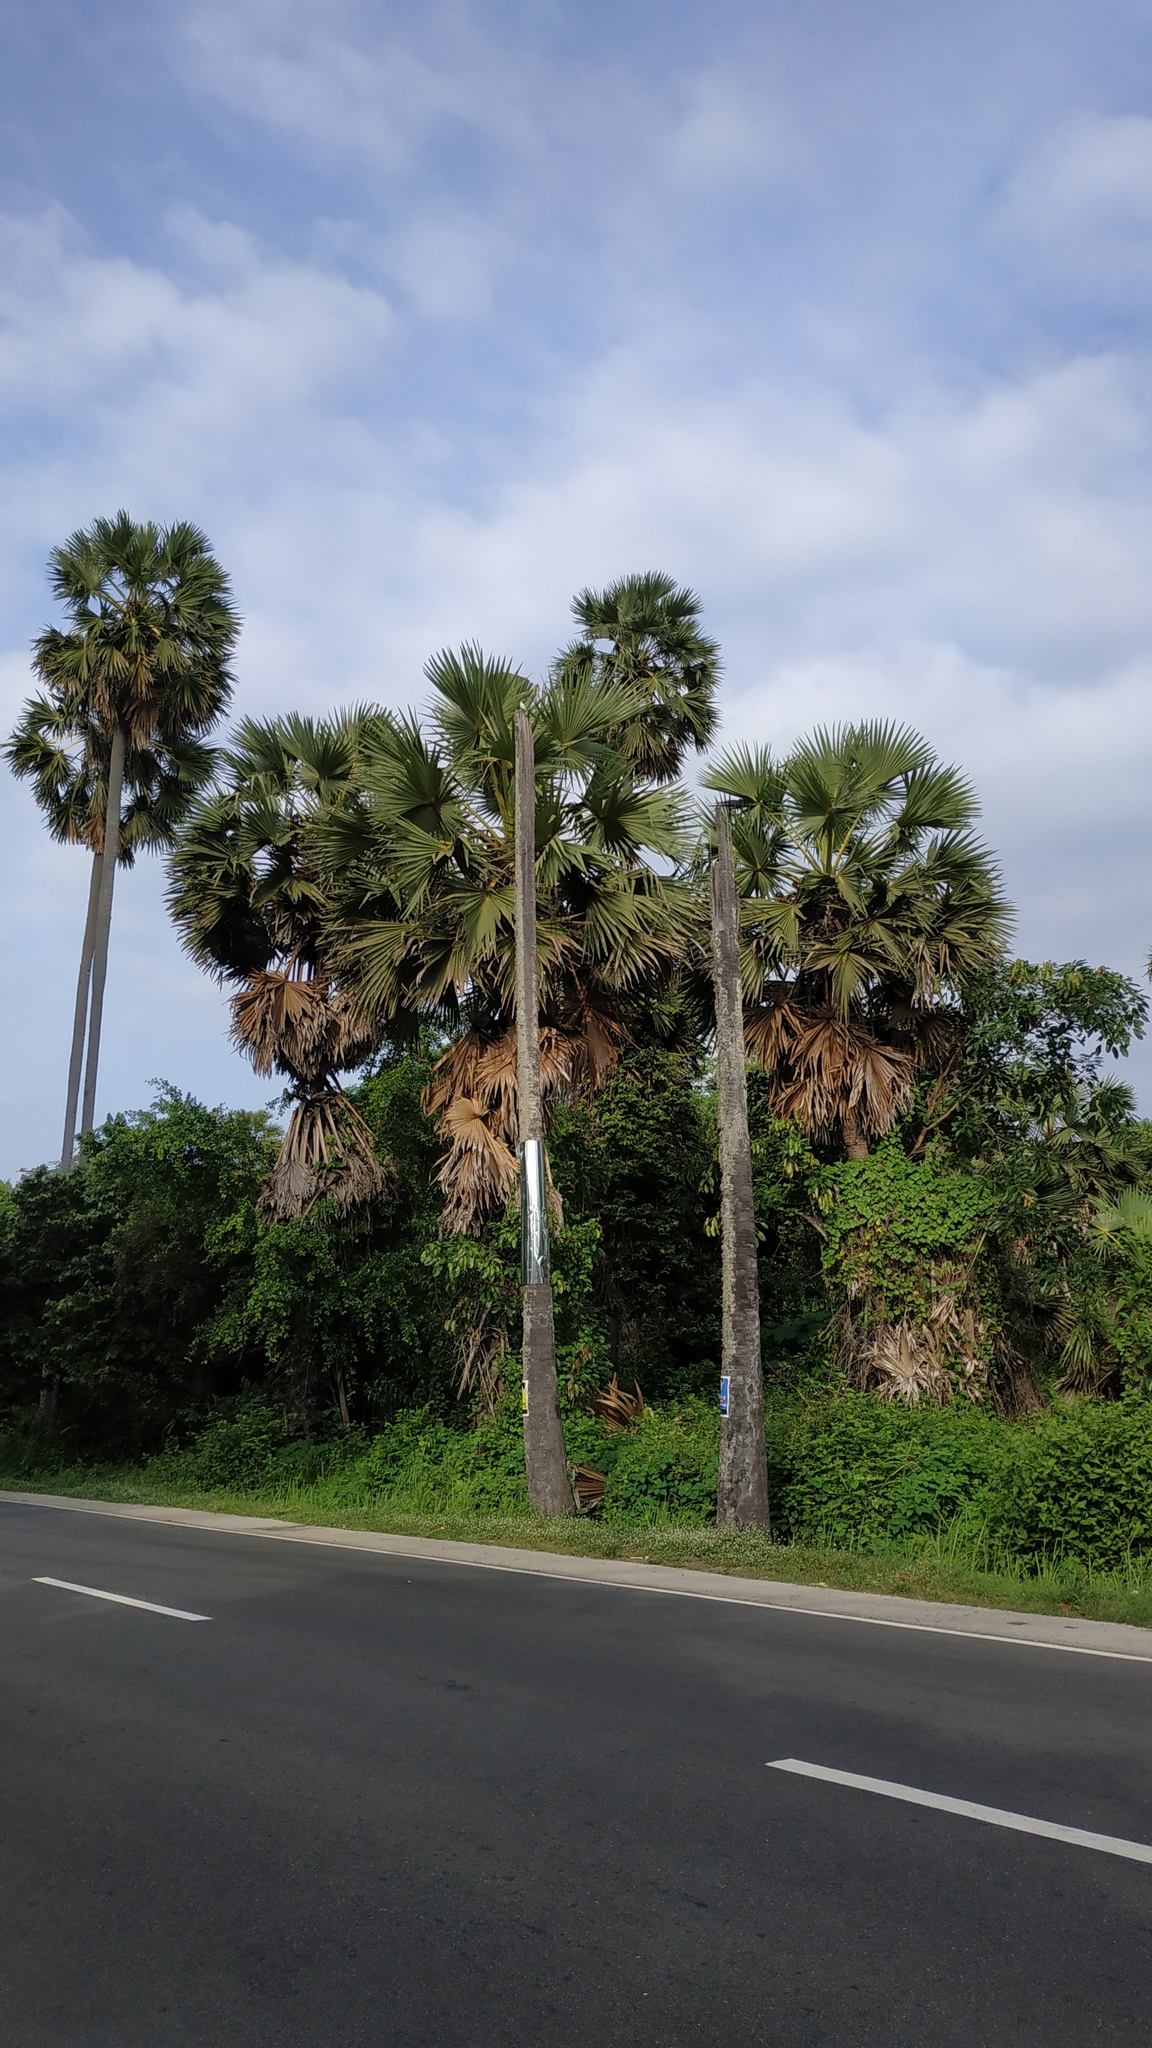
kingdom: Plantae
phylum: Tracheophyta
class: Liliopsida
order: Arecales
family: Arecaceae
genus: Borassus
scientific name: Borassus flabellifer
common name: Palmyra palm
